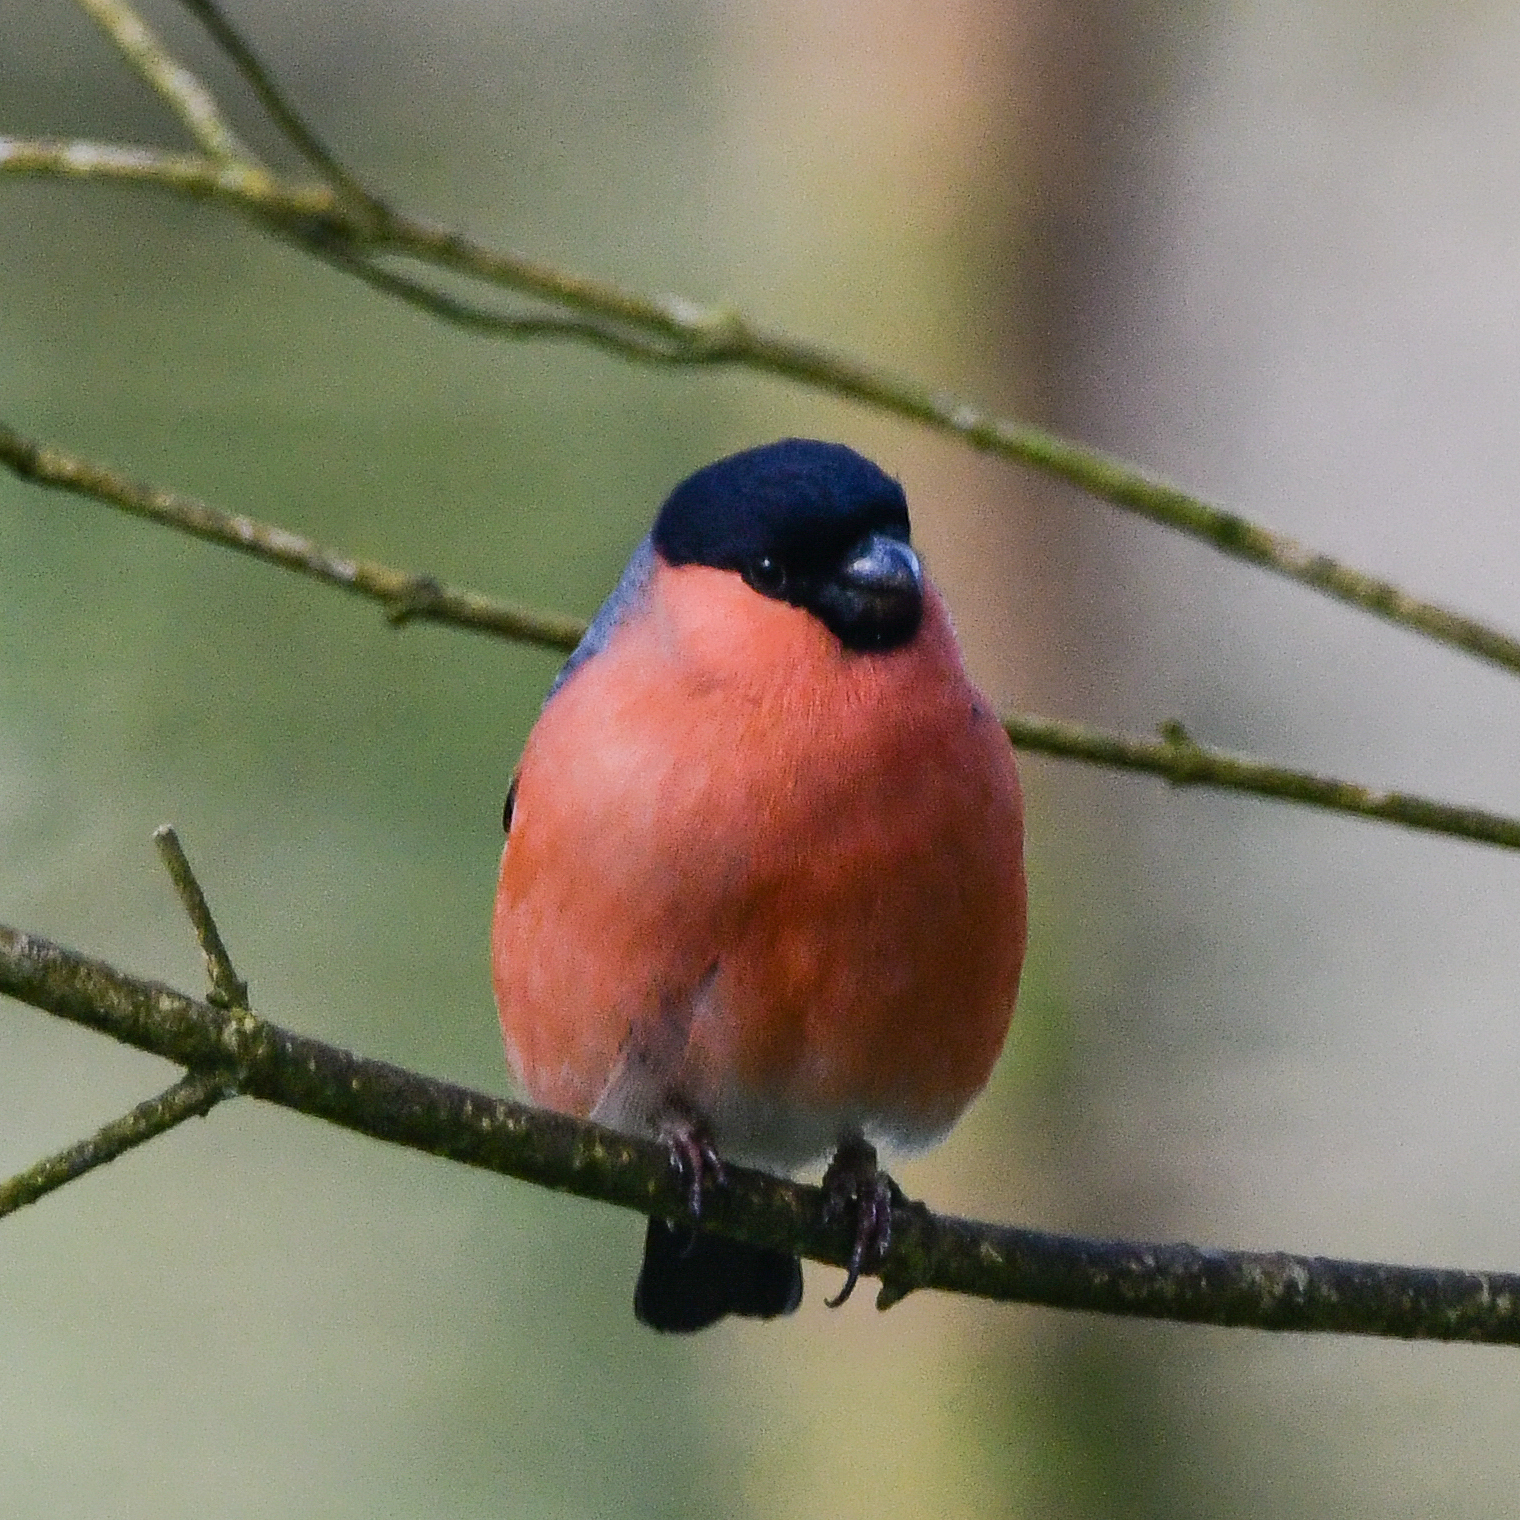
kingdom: Animalia
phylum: Chordata
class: Aves
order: Passeriformes
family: Fringillidae
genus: Pyrrhula
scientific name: Pyrrhula pyrrhula
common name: Eurasian bullfinch
